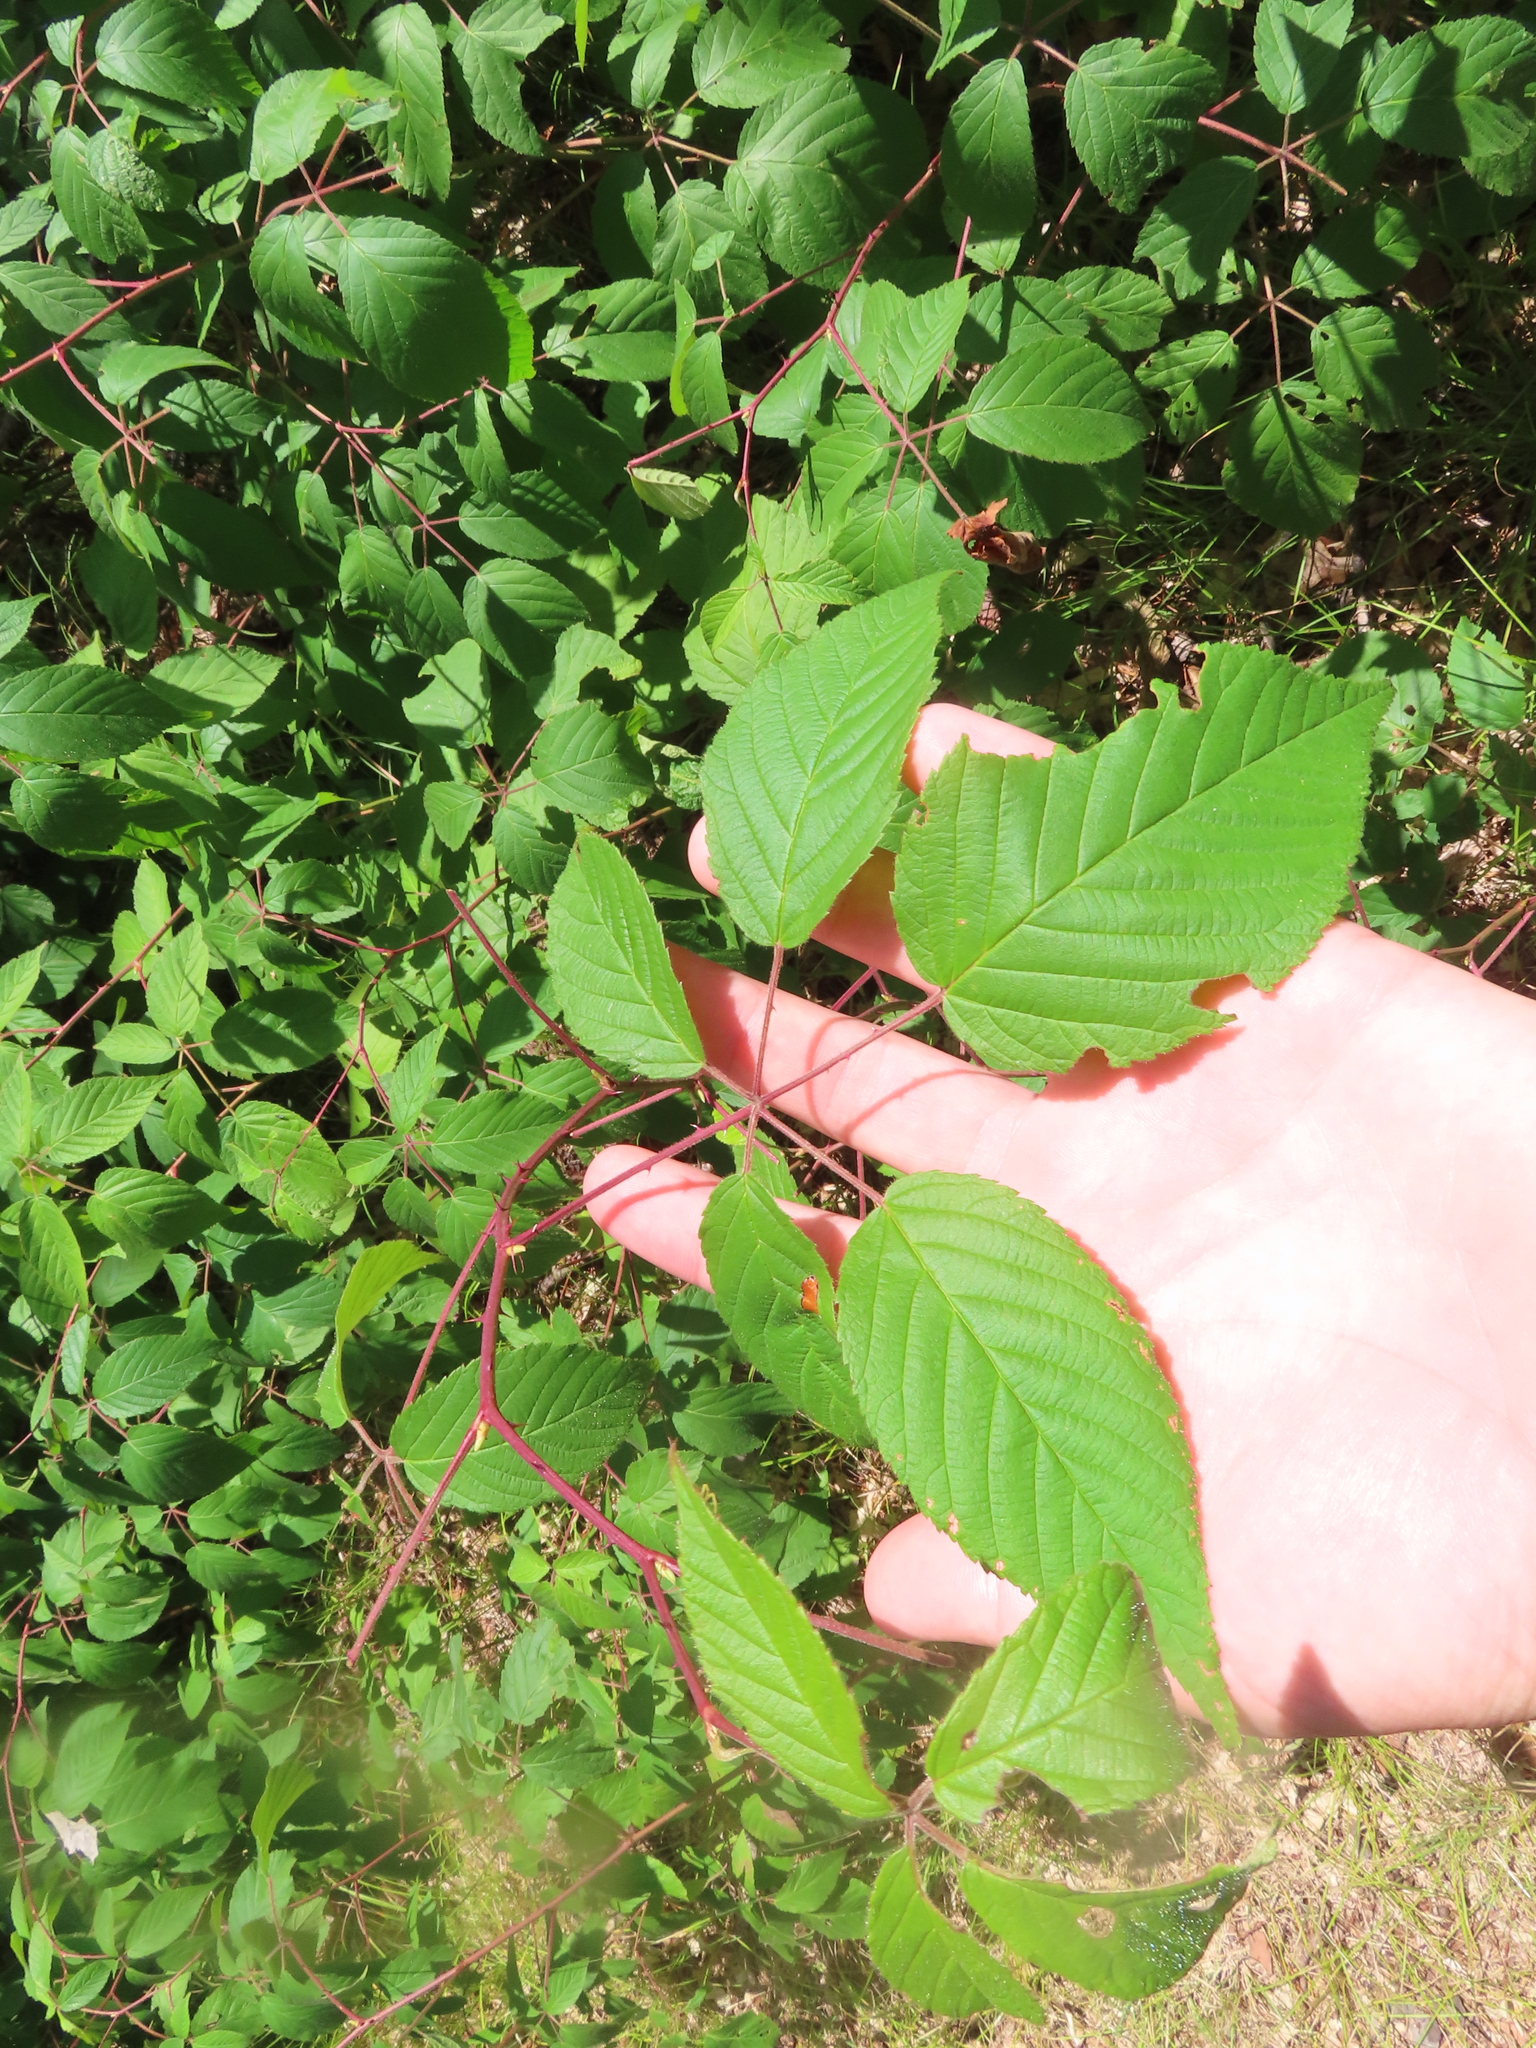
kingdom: Plantae
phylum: Tracheophyta
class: Magnoliopsida
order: Rosales
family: Rosaceae
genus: Rubus
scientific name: Rubus allegheniensis
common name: Allegheny blackberry
